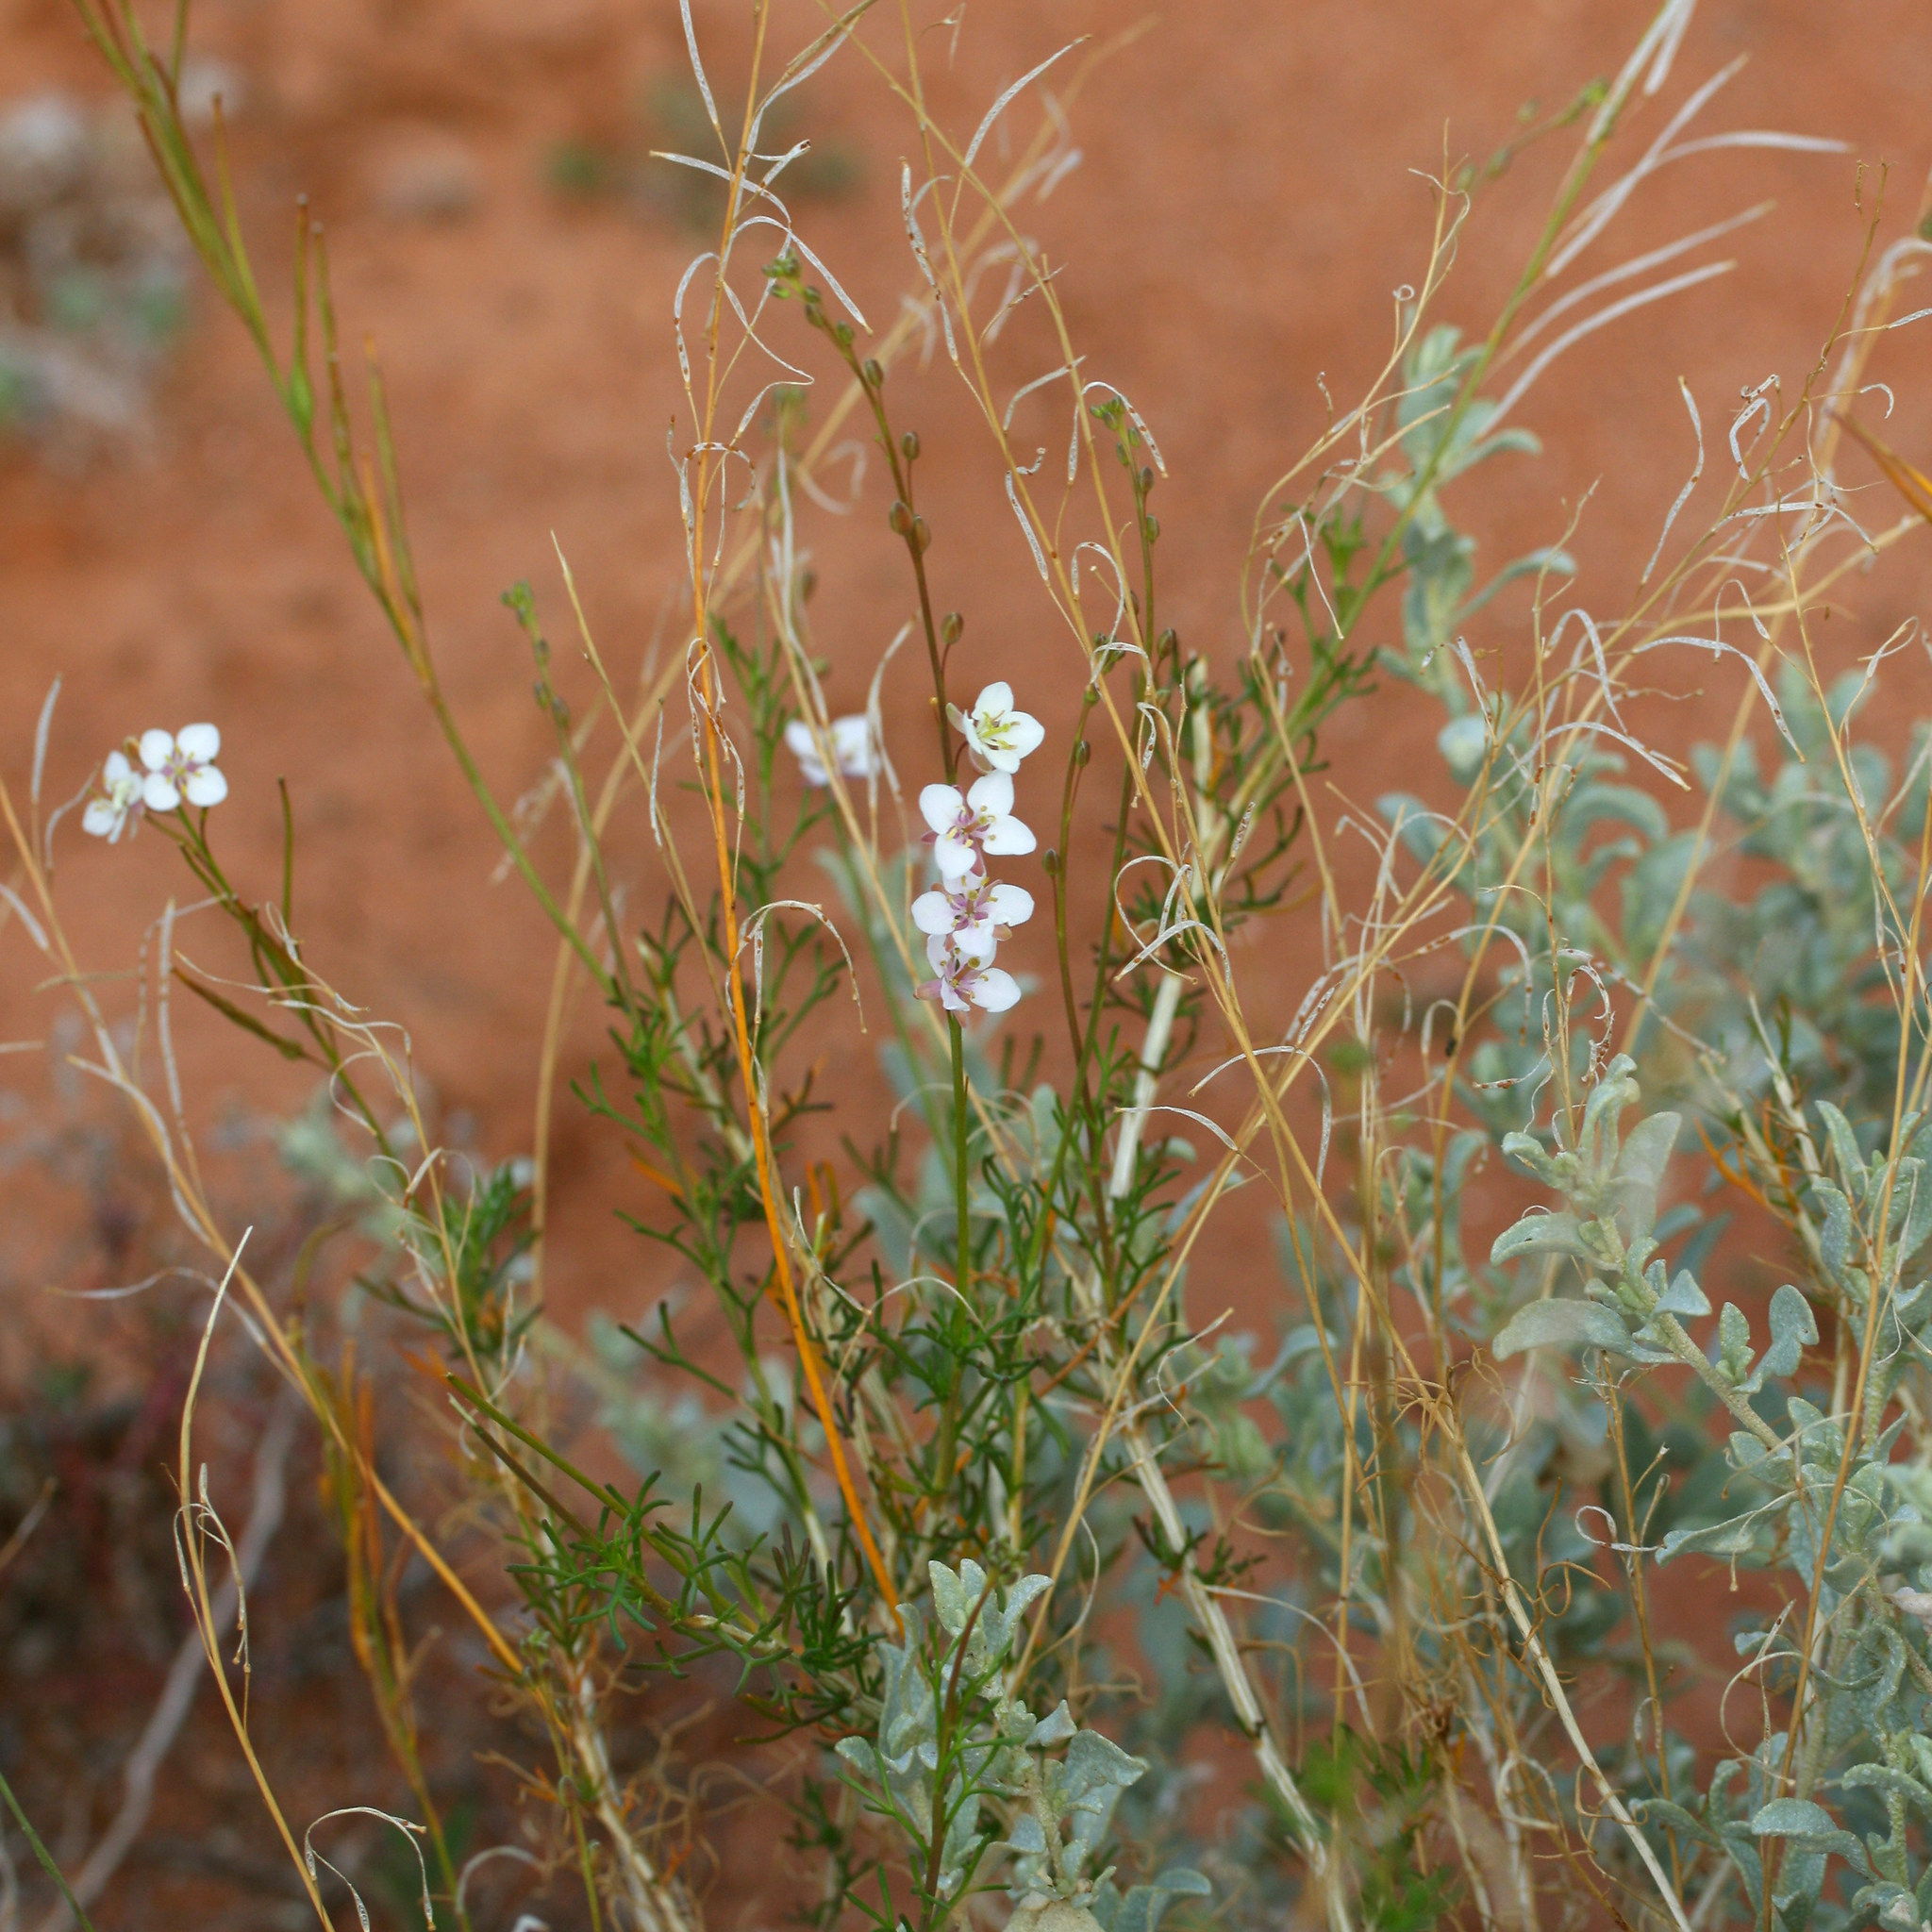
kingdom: Plantae
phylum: Tracheophyta
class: Magnoliopsida
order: Brassicales
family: Brassicaceae
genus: Arabidella
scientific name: Arabidella trisecta
